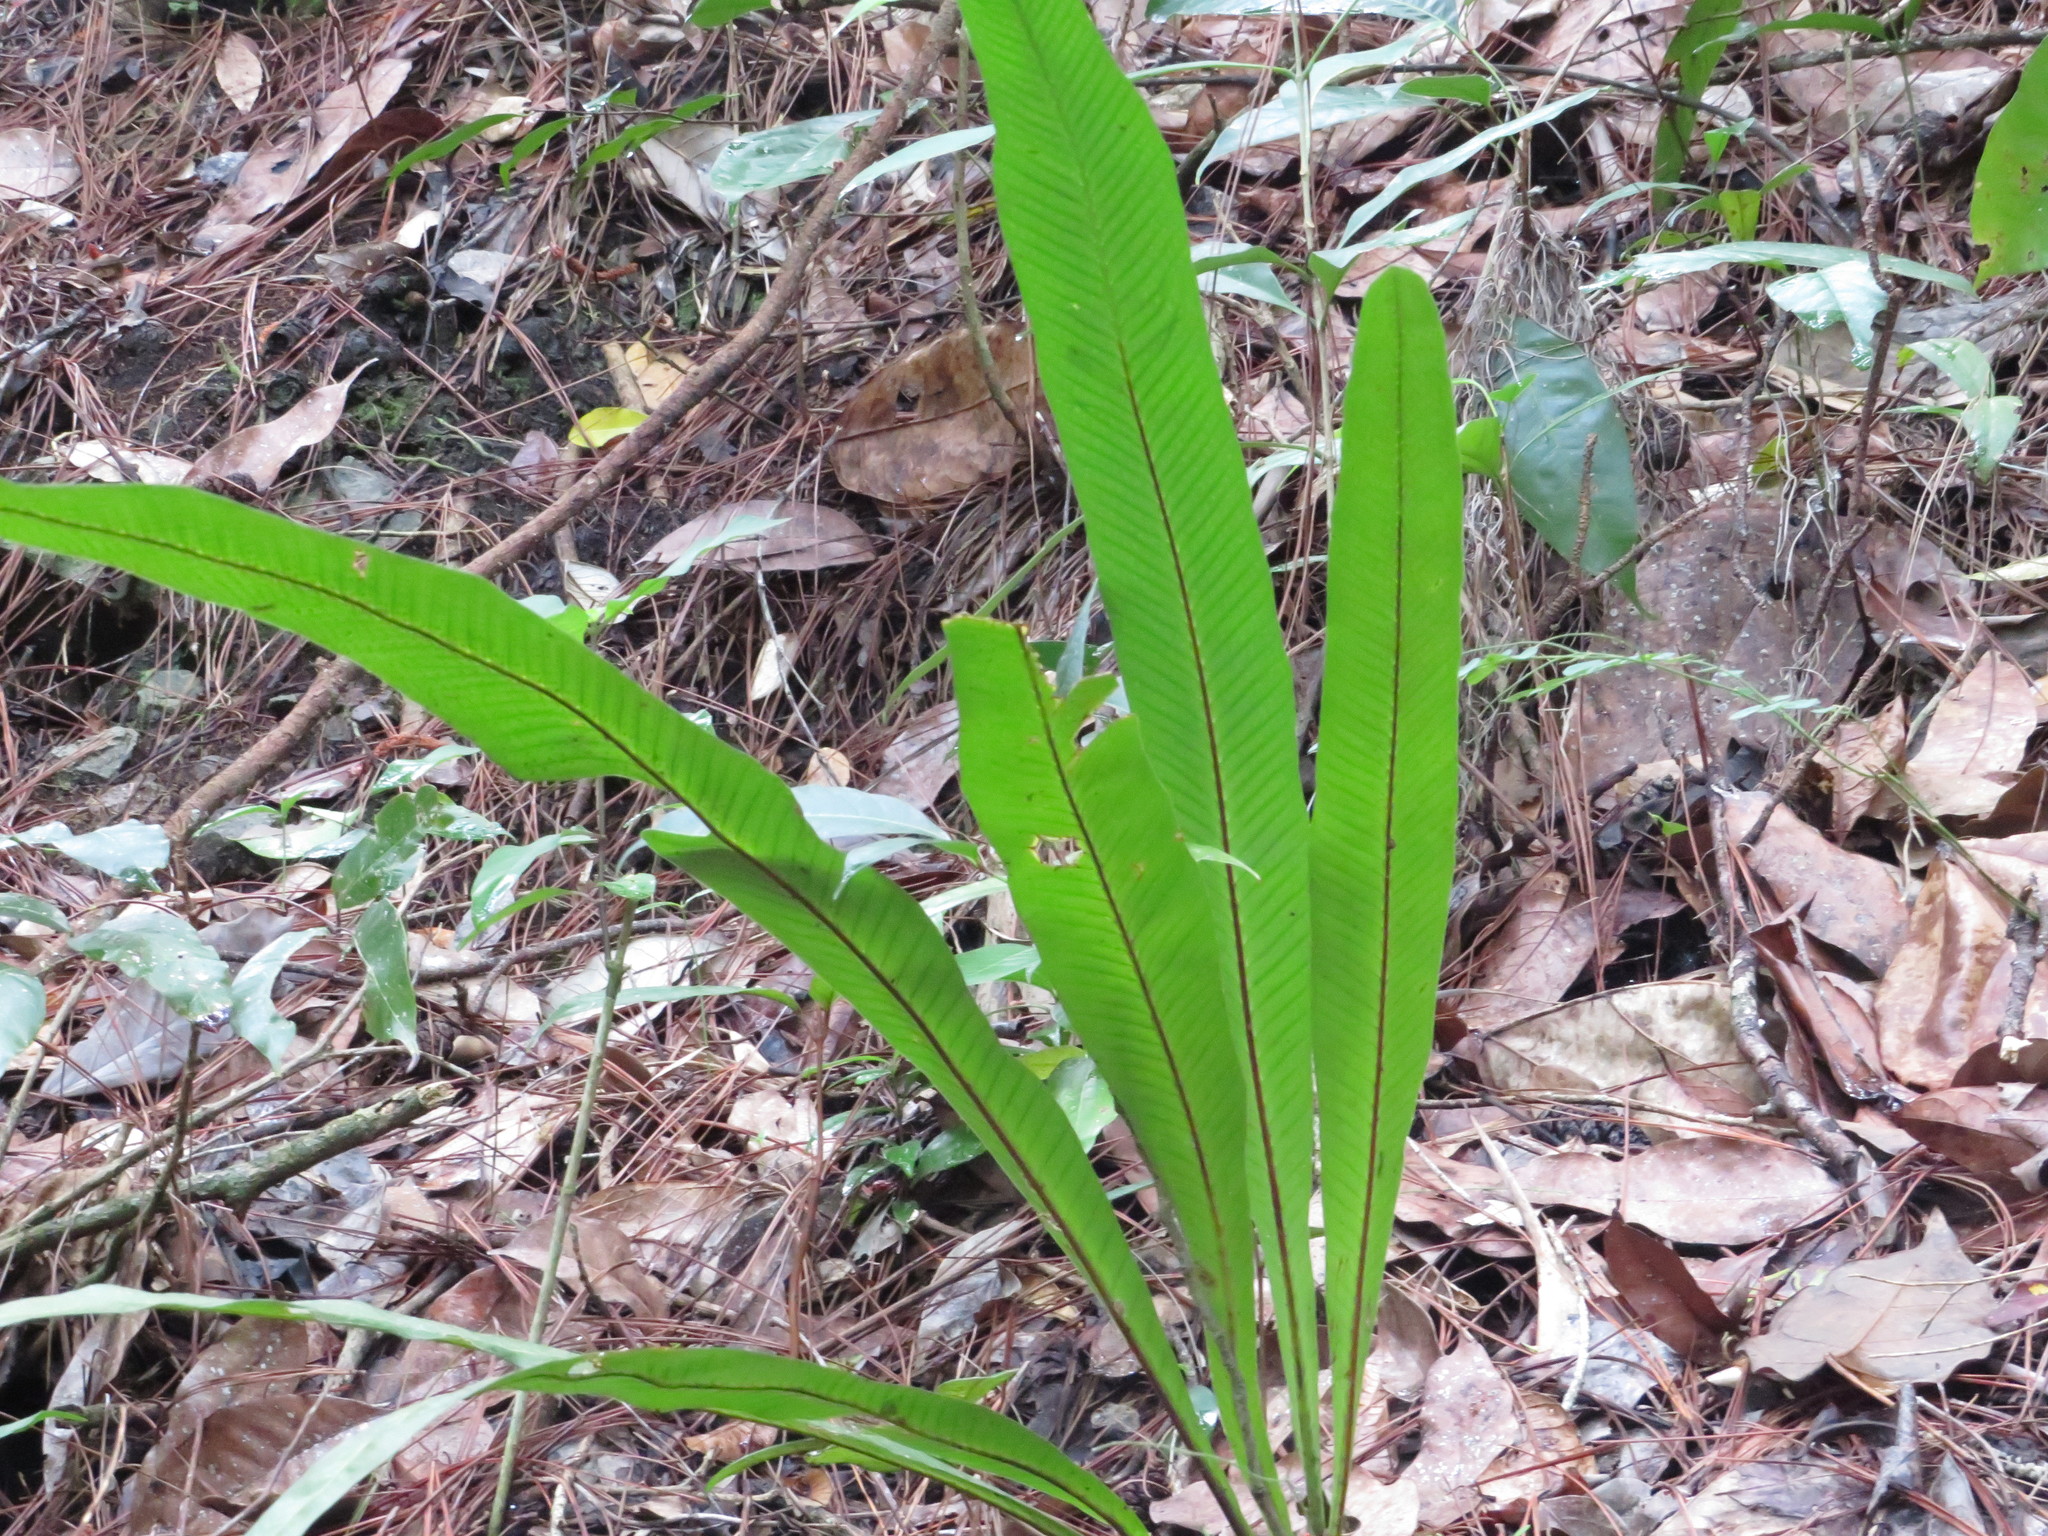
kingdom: Plantae
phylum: Tracheophyta
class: Polypodiopsida
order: Polypodiales
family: Polypodiaceae
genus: Campyloneurum
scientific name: Campyloneurum phyllitidis
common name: Cow-tongue fern
